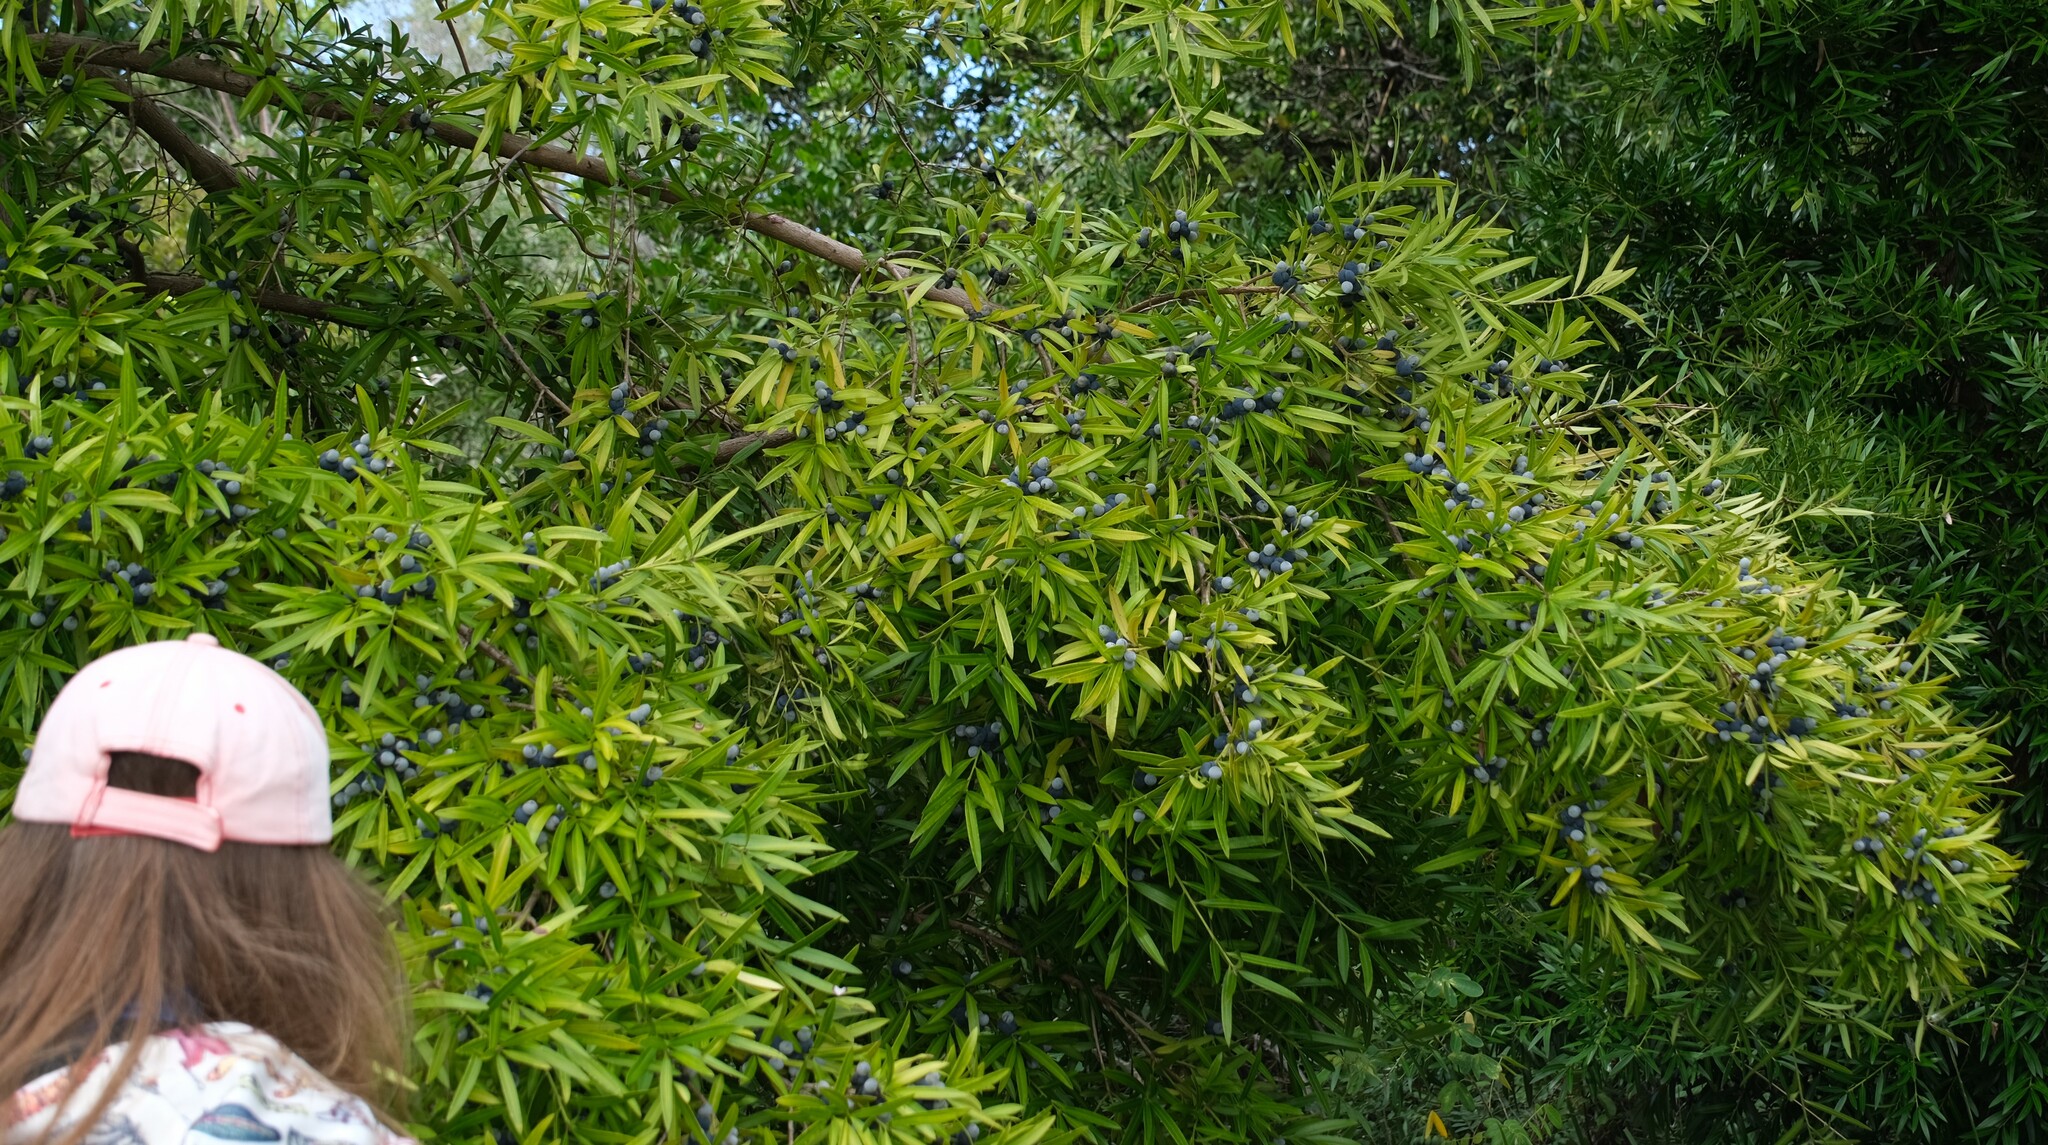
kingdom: Plantae
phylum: Tracheophyta
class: Pinopsida
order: Pinales
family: Podocarpaceae
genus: Podocarpus
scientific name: Podocarpus elatus
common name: Plum pine
